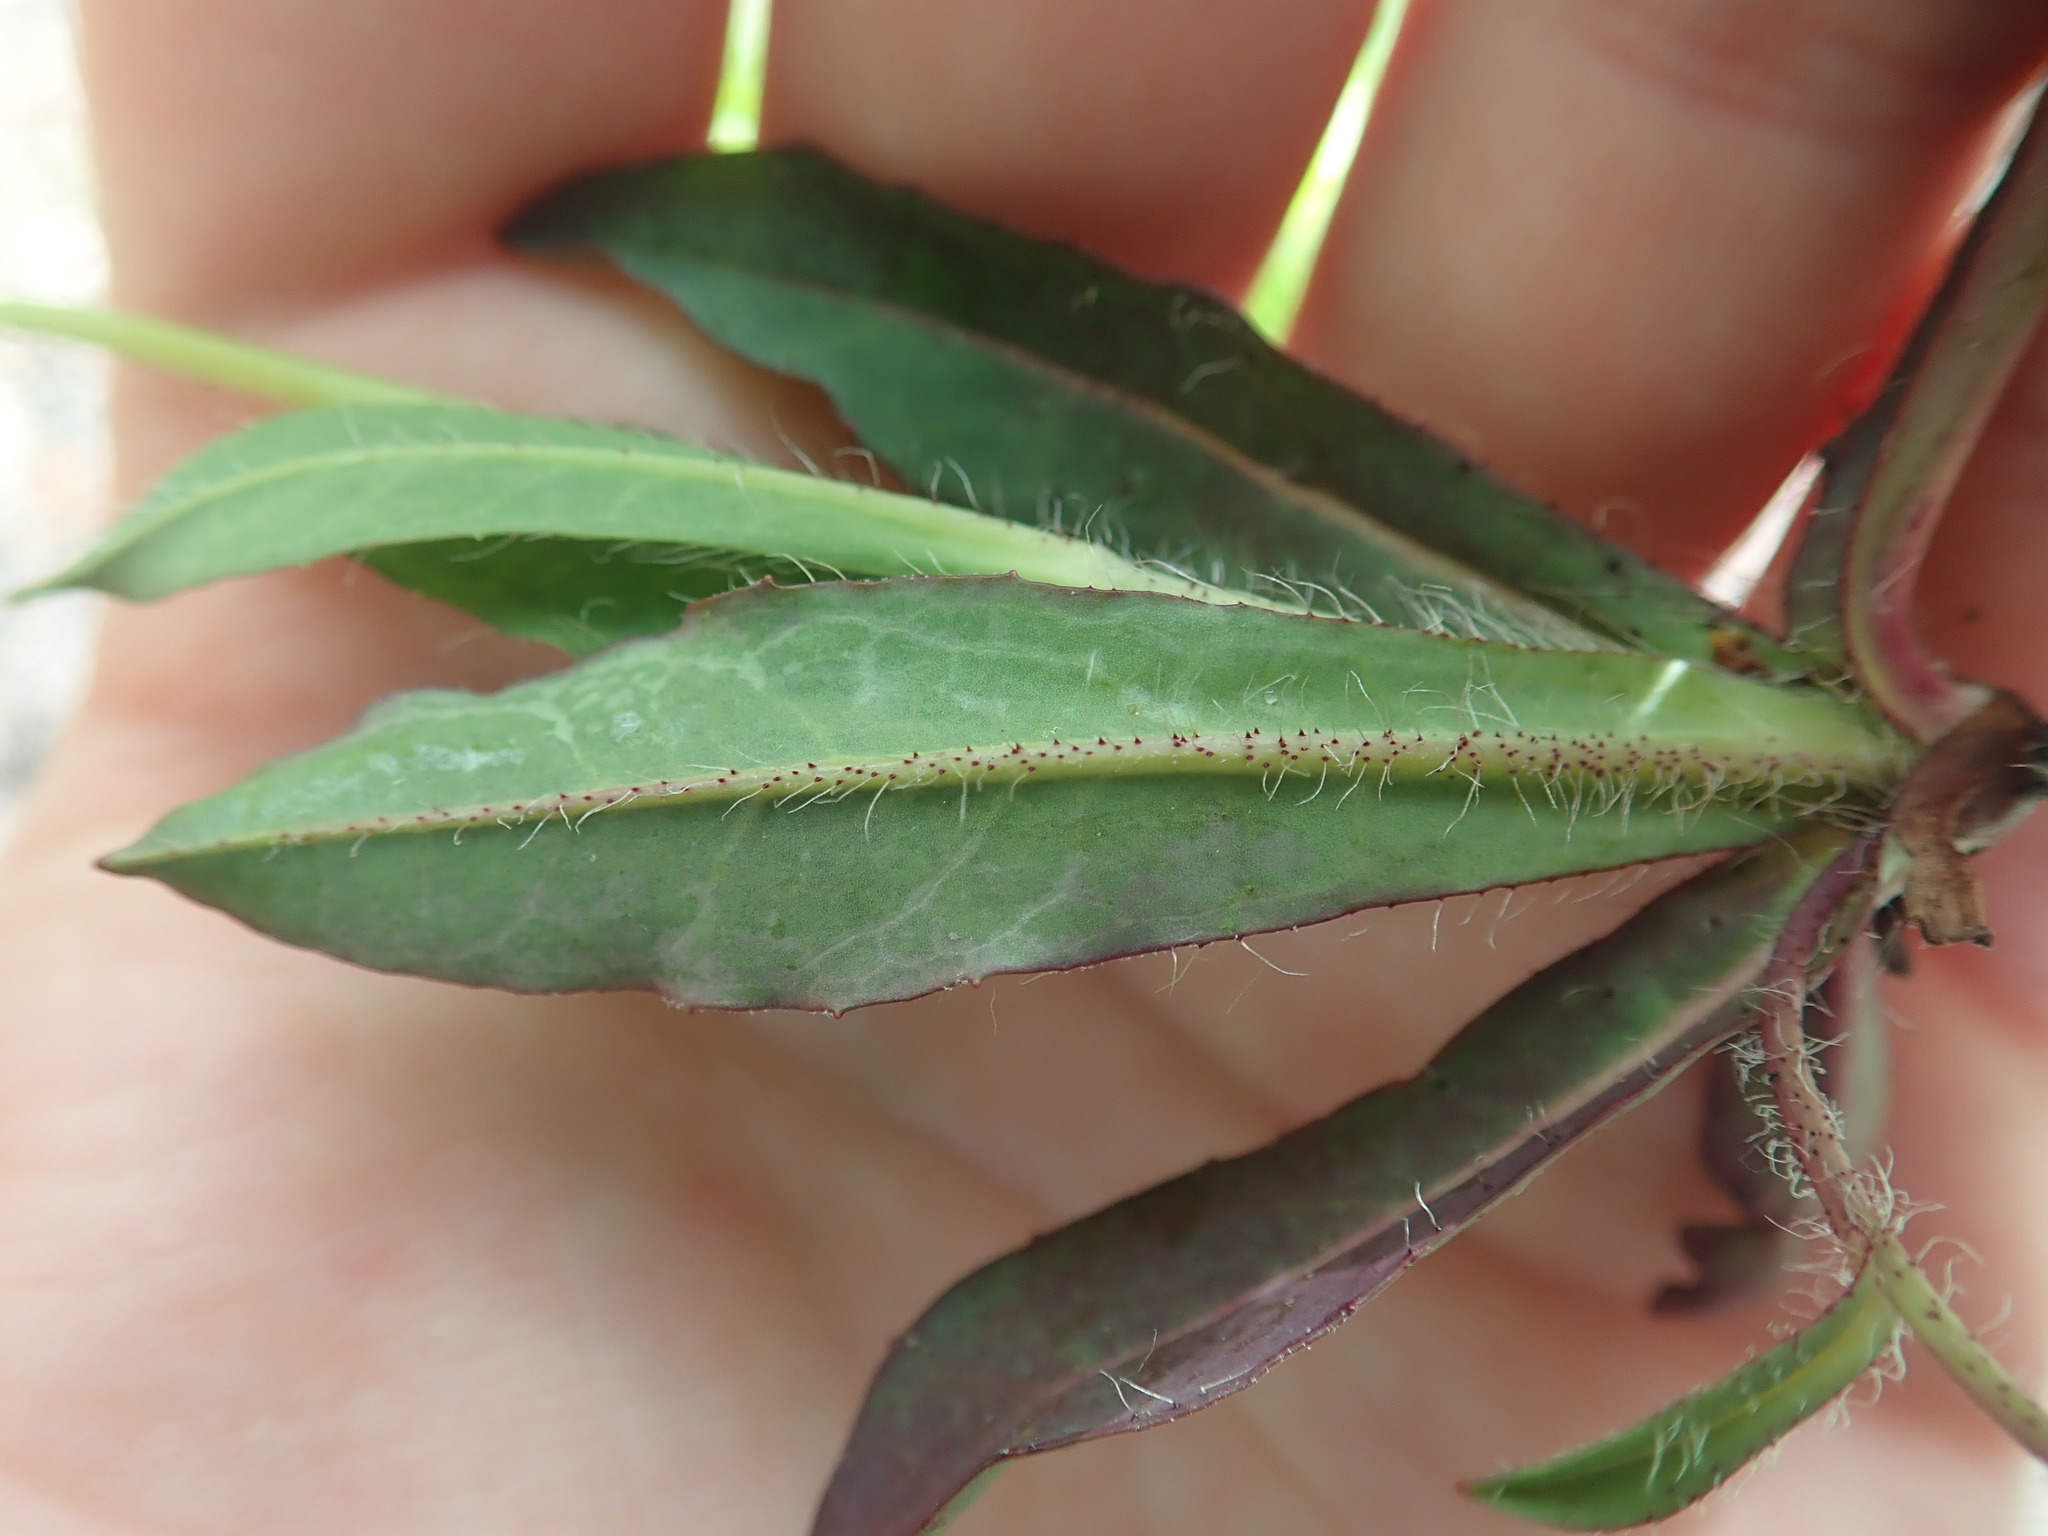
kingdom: Plantae
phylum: Tracheophyta
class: Magnoliopsida
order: Asterales
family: Asteraceae
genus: Pilosella
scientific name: Pilosella bauhini
